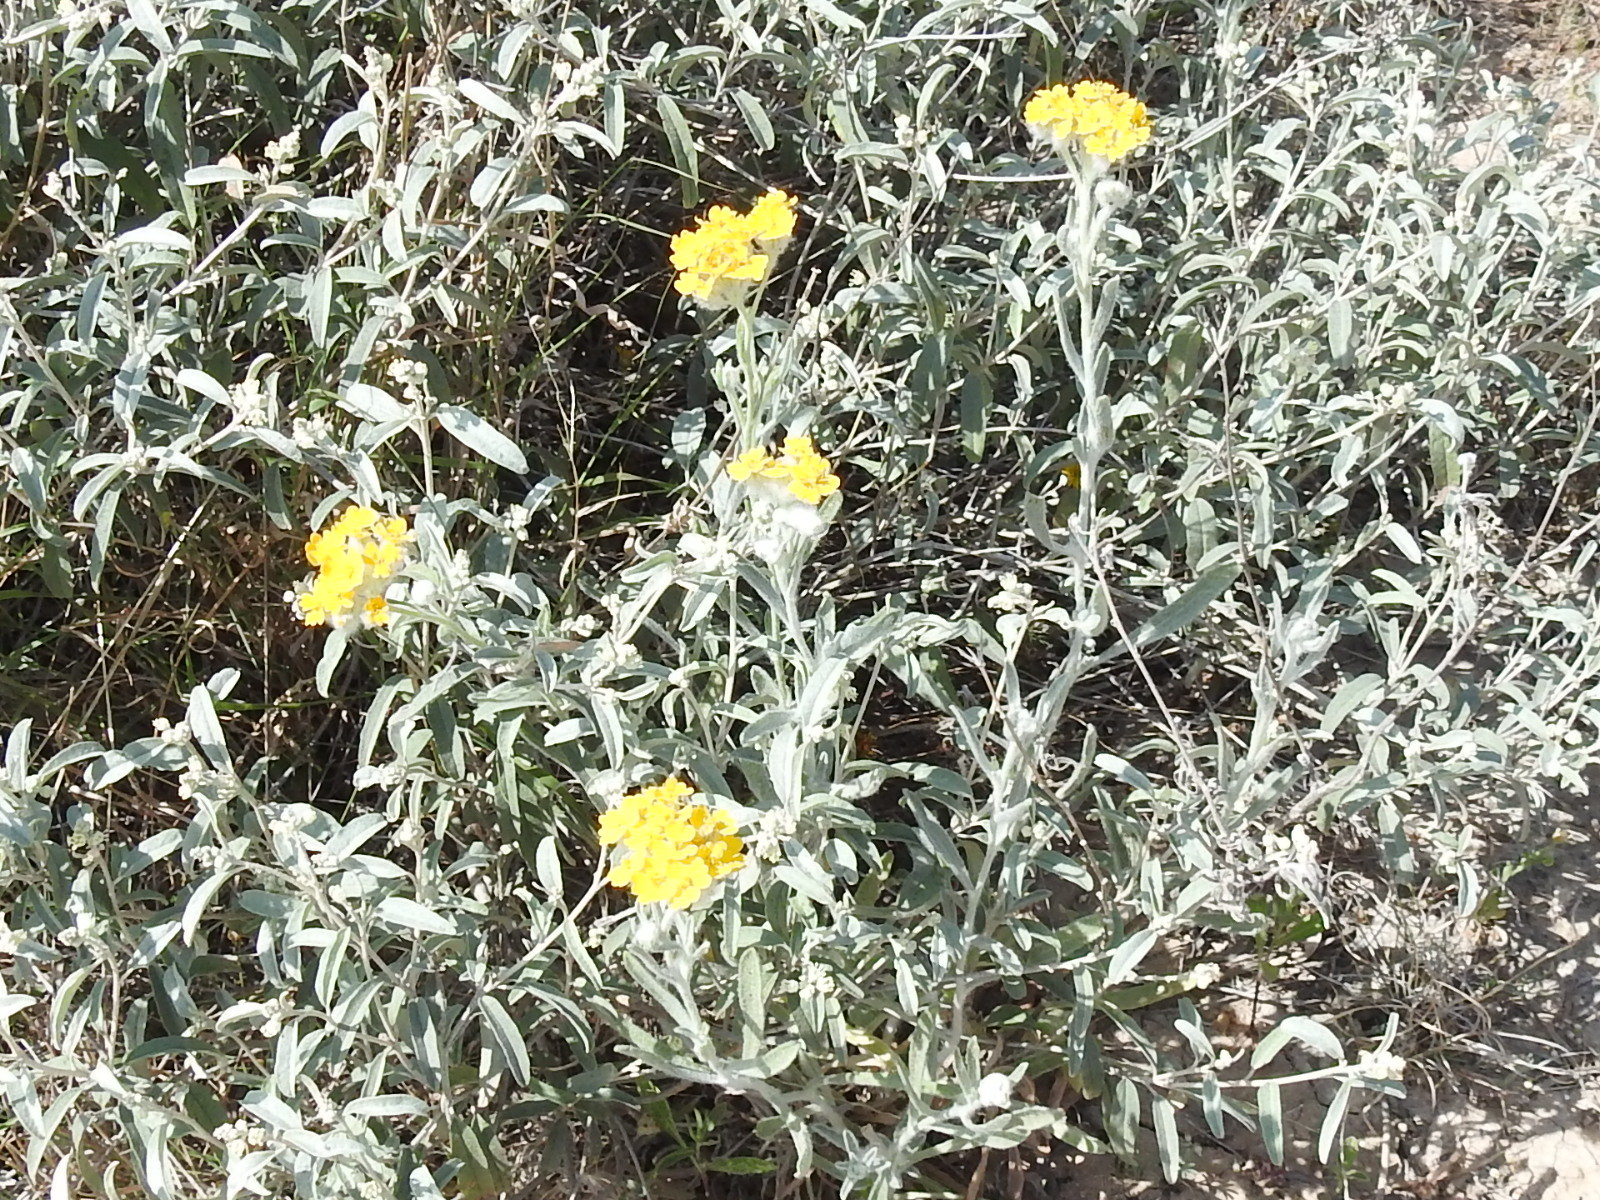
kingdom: Plantae
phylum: Tracheophyta
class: Magnoliopsida
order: Asterales
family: Asteraceae
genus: Psilostrophe
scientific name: Psilostrophe gnaphalioides
